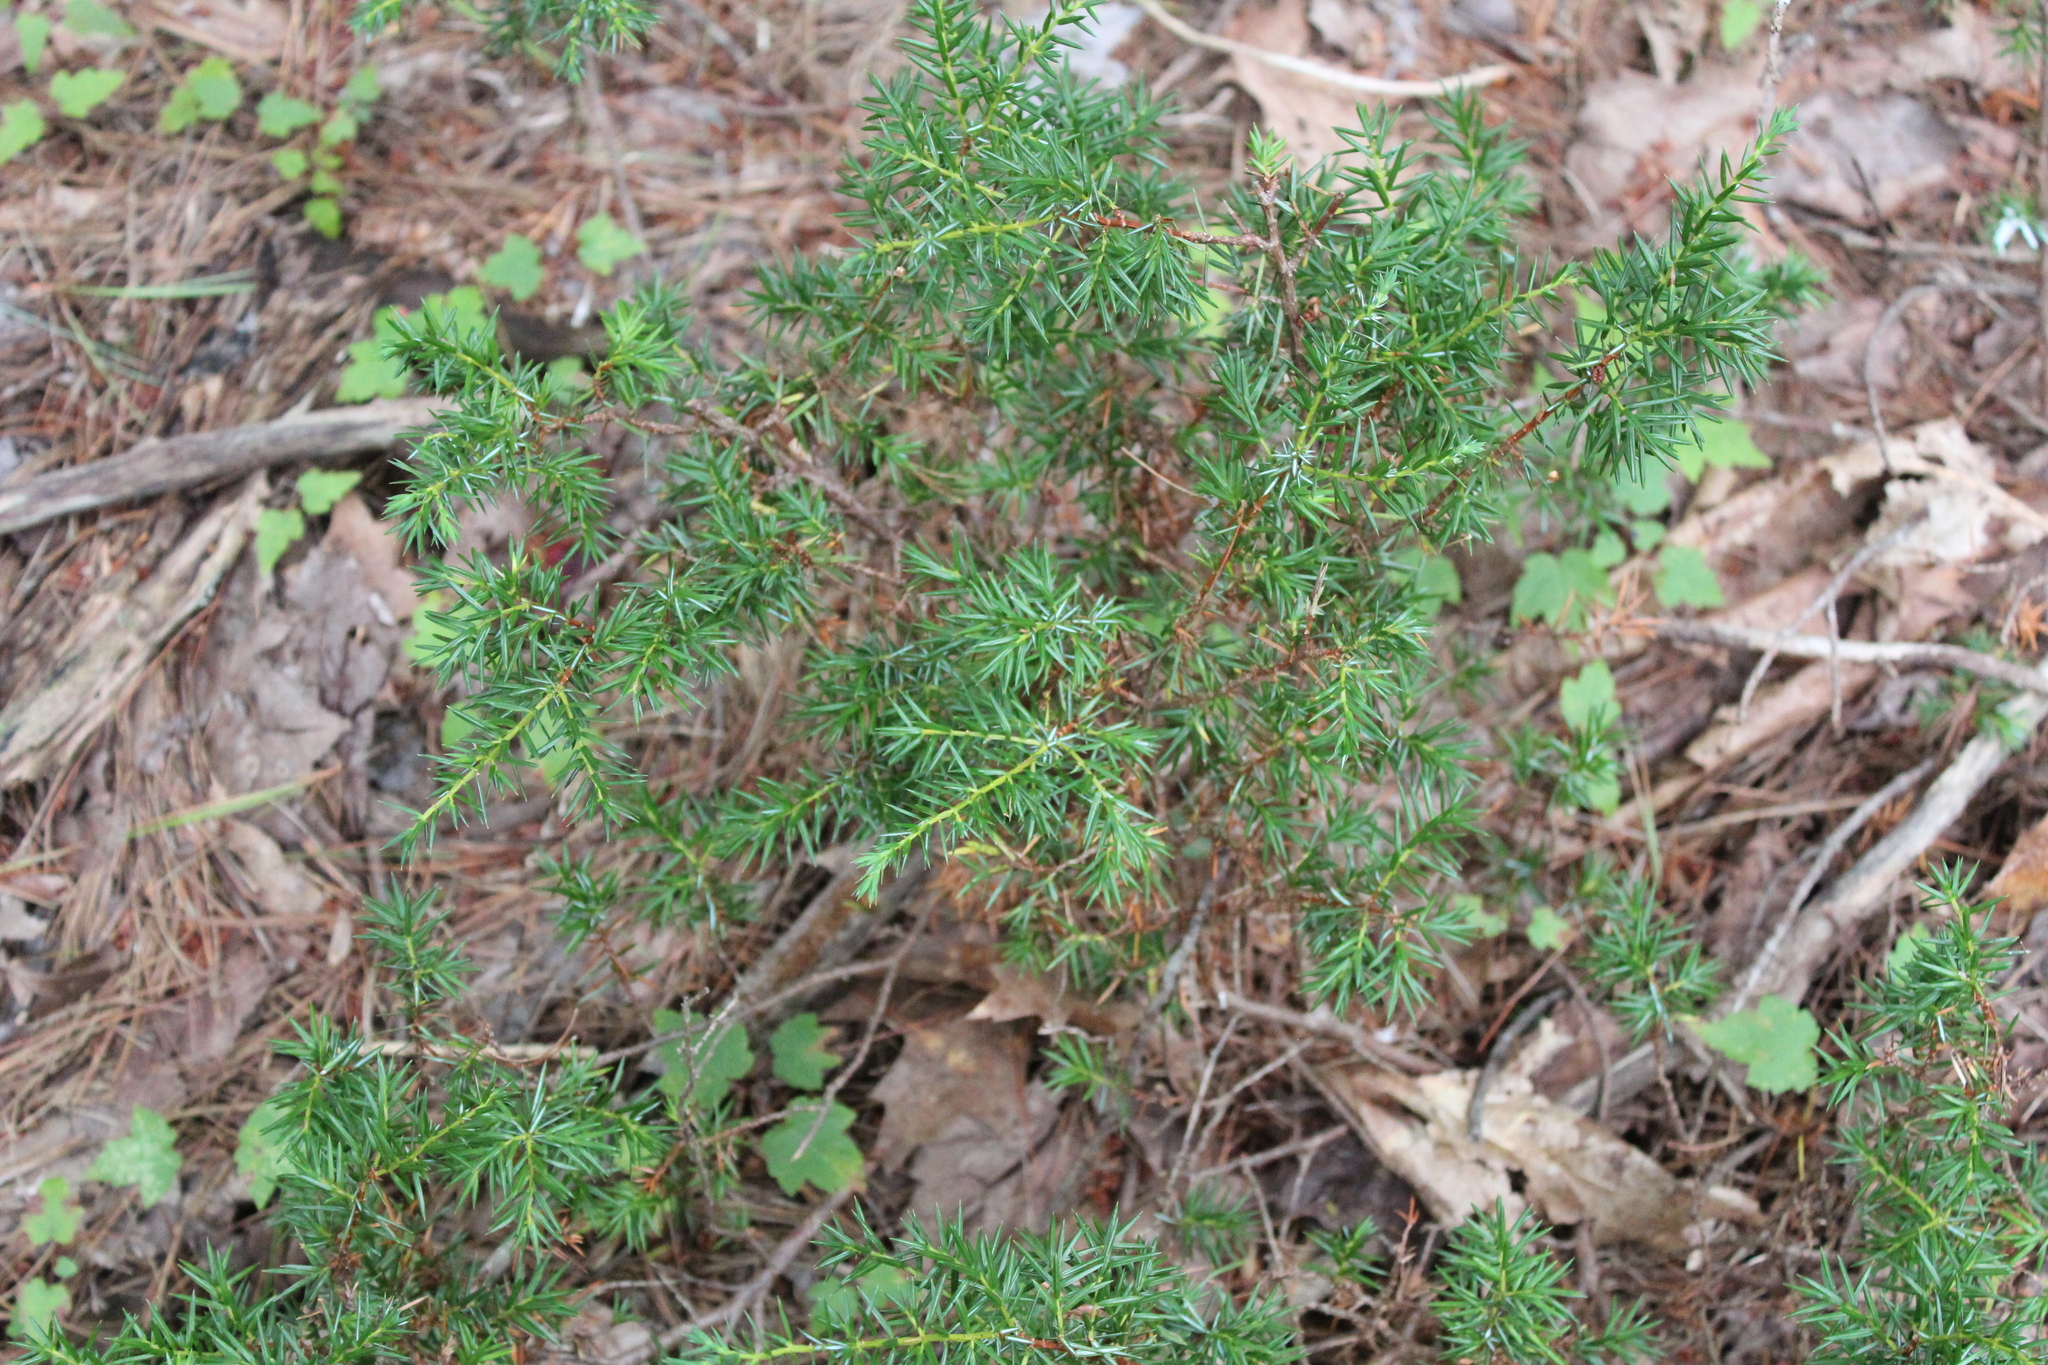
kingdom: Plantae
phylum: Tracheophyta
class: Pinopsida
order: Pinales
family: Cupressaceae
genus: Juniperus
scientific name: Juniperus communis
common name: Common juniper
